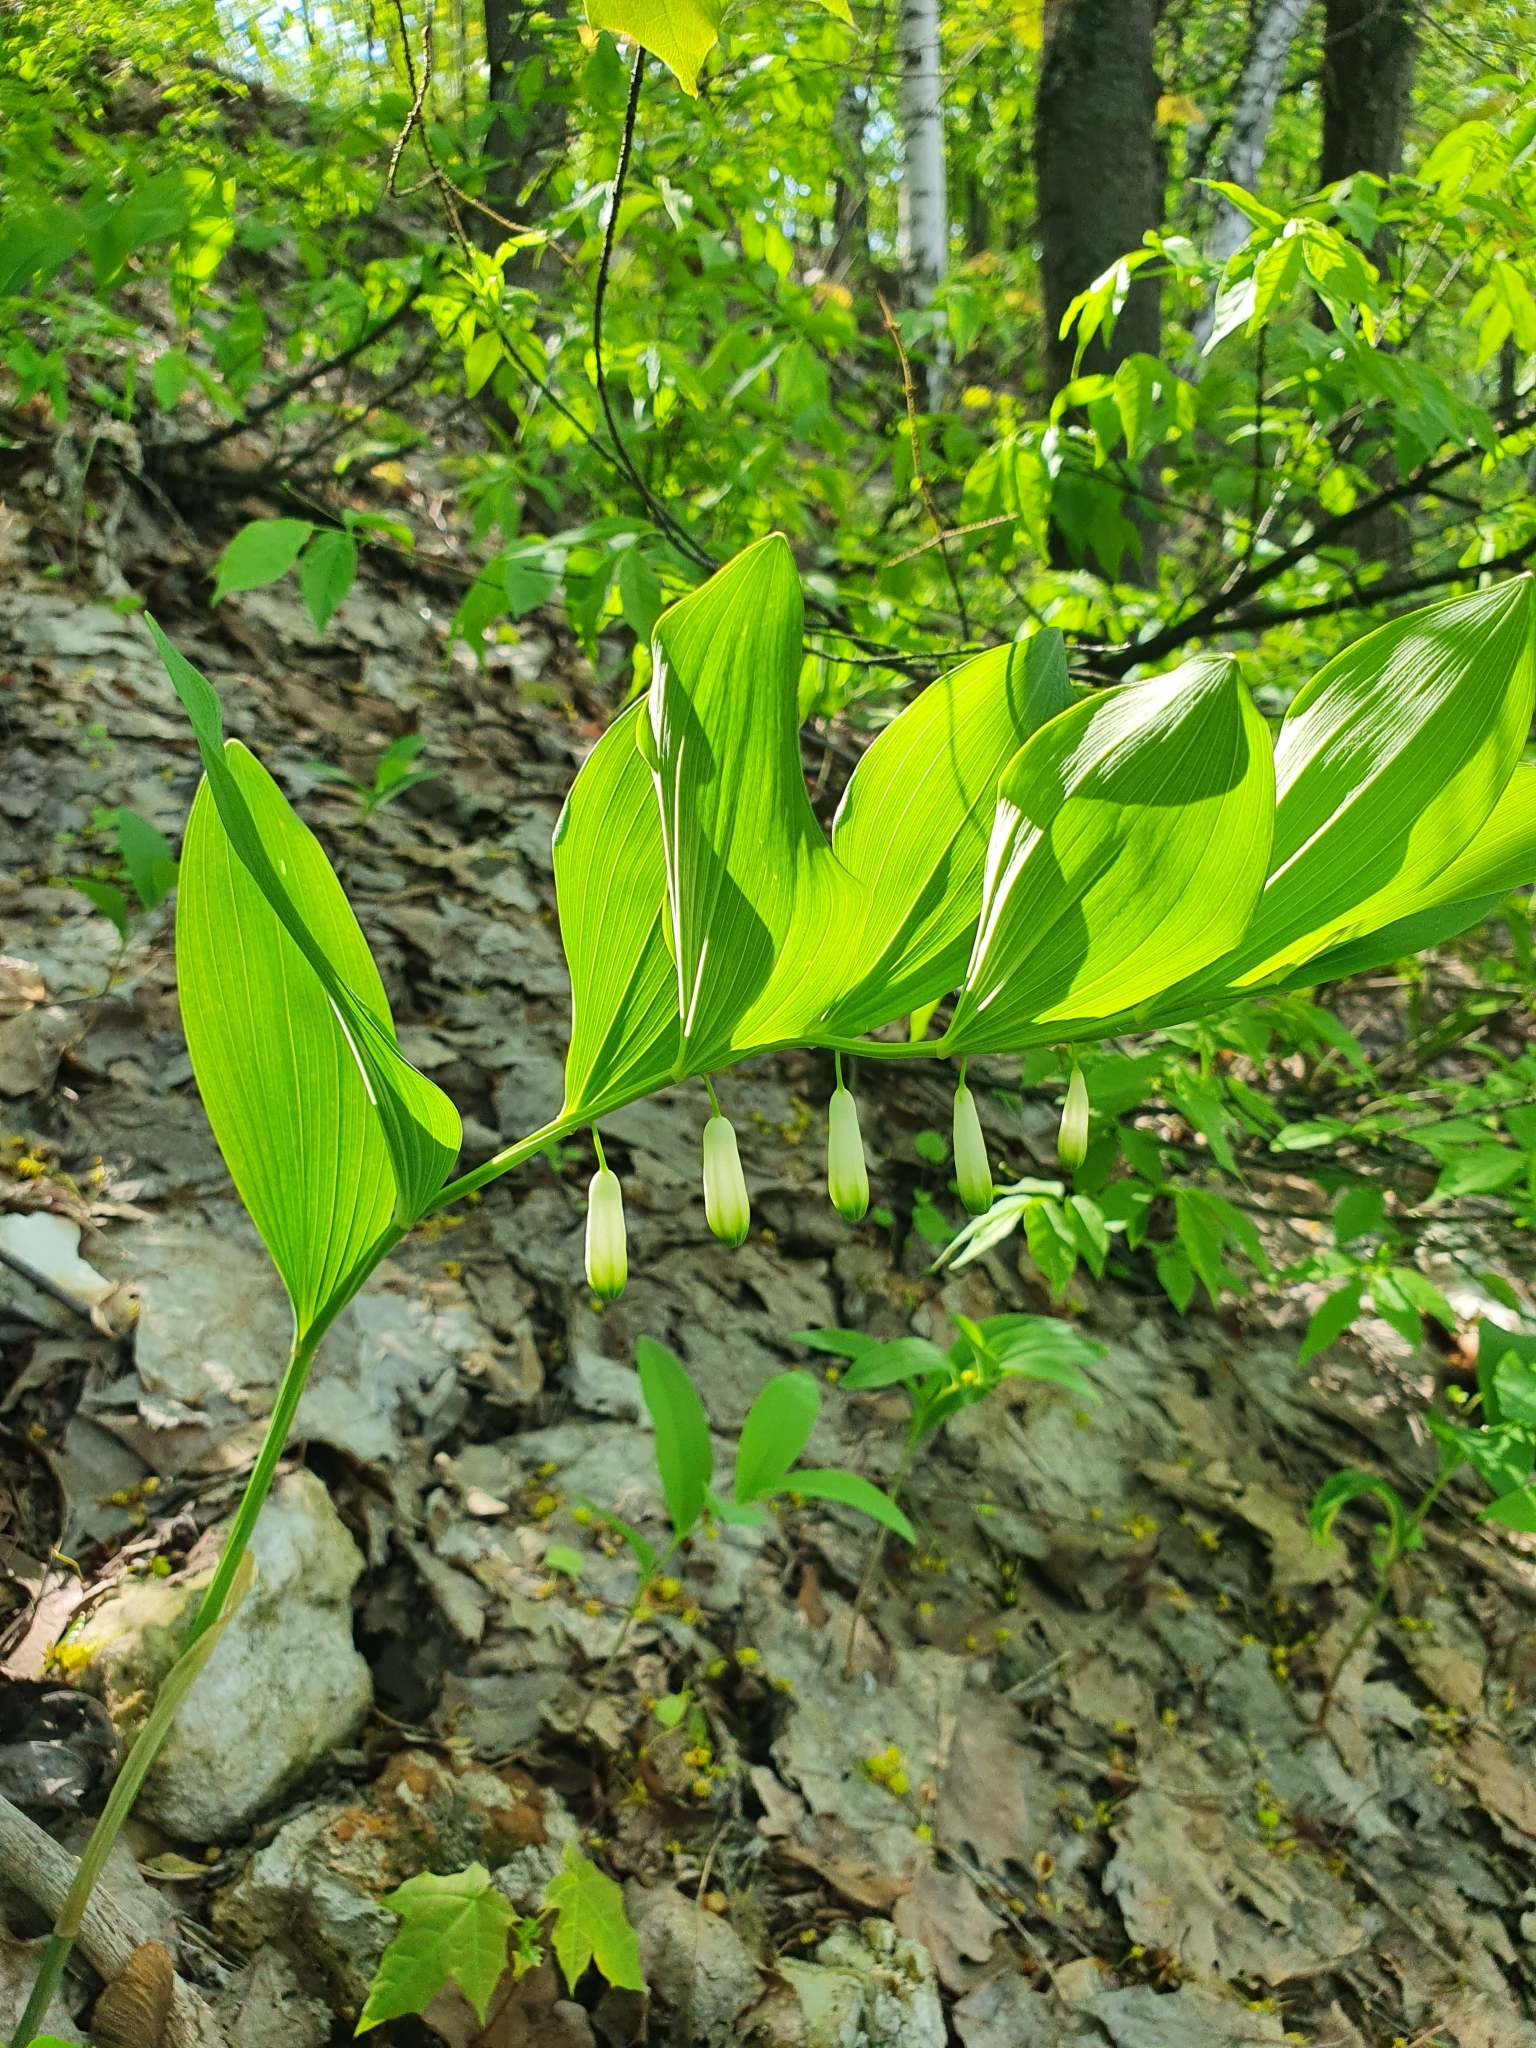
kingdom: Plantae
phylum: Tracheophyta
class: Liliopsida
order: Asparagales
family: Asparagaceae
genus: Polygonatum
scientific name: Polygonatum odoratum
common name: Angular solomon's-seal
